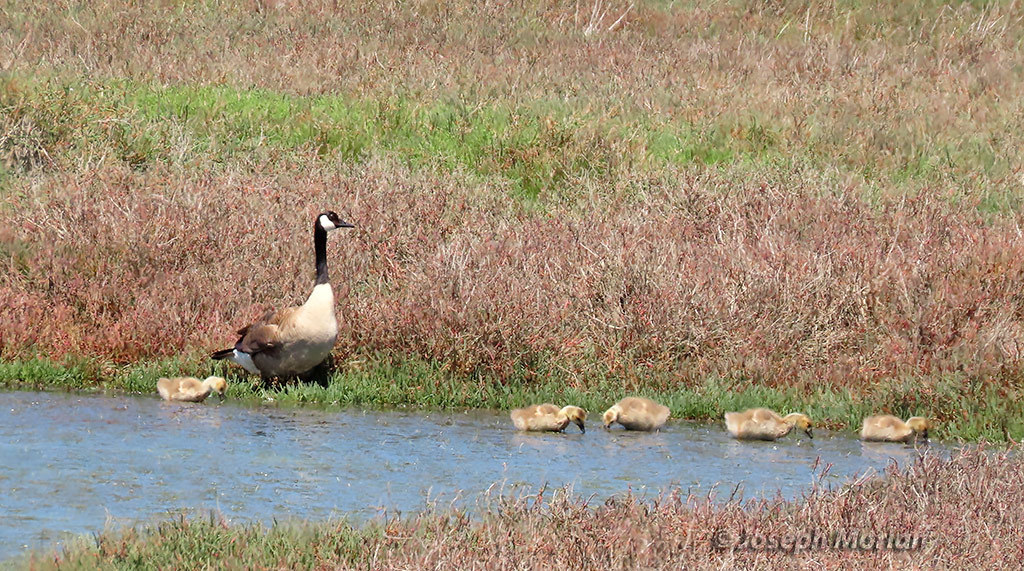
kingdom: Animalia
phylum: Chordata
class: Aves
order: Anseriformes
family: Anatidae
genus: Branta
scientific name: Branta canadensis
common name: Canada goose
